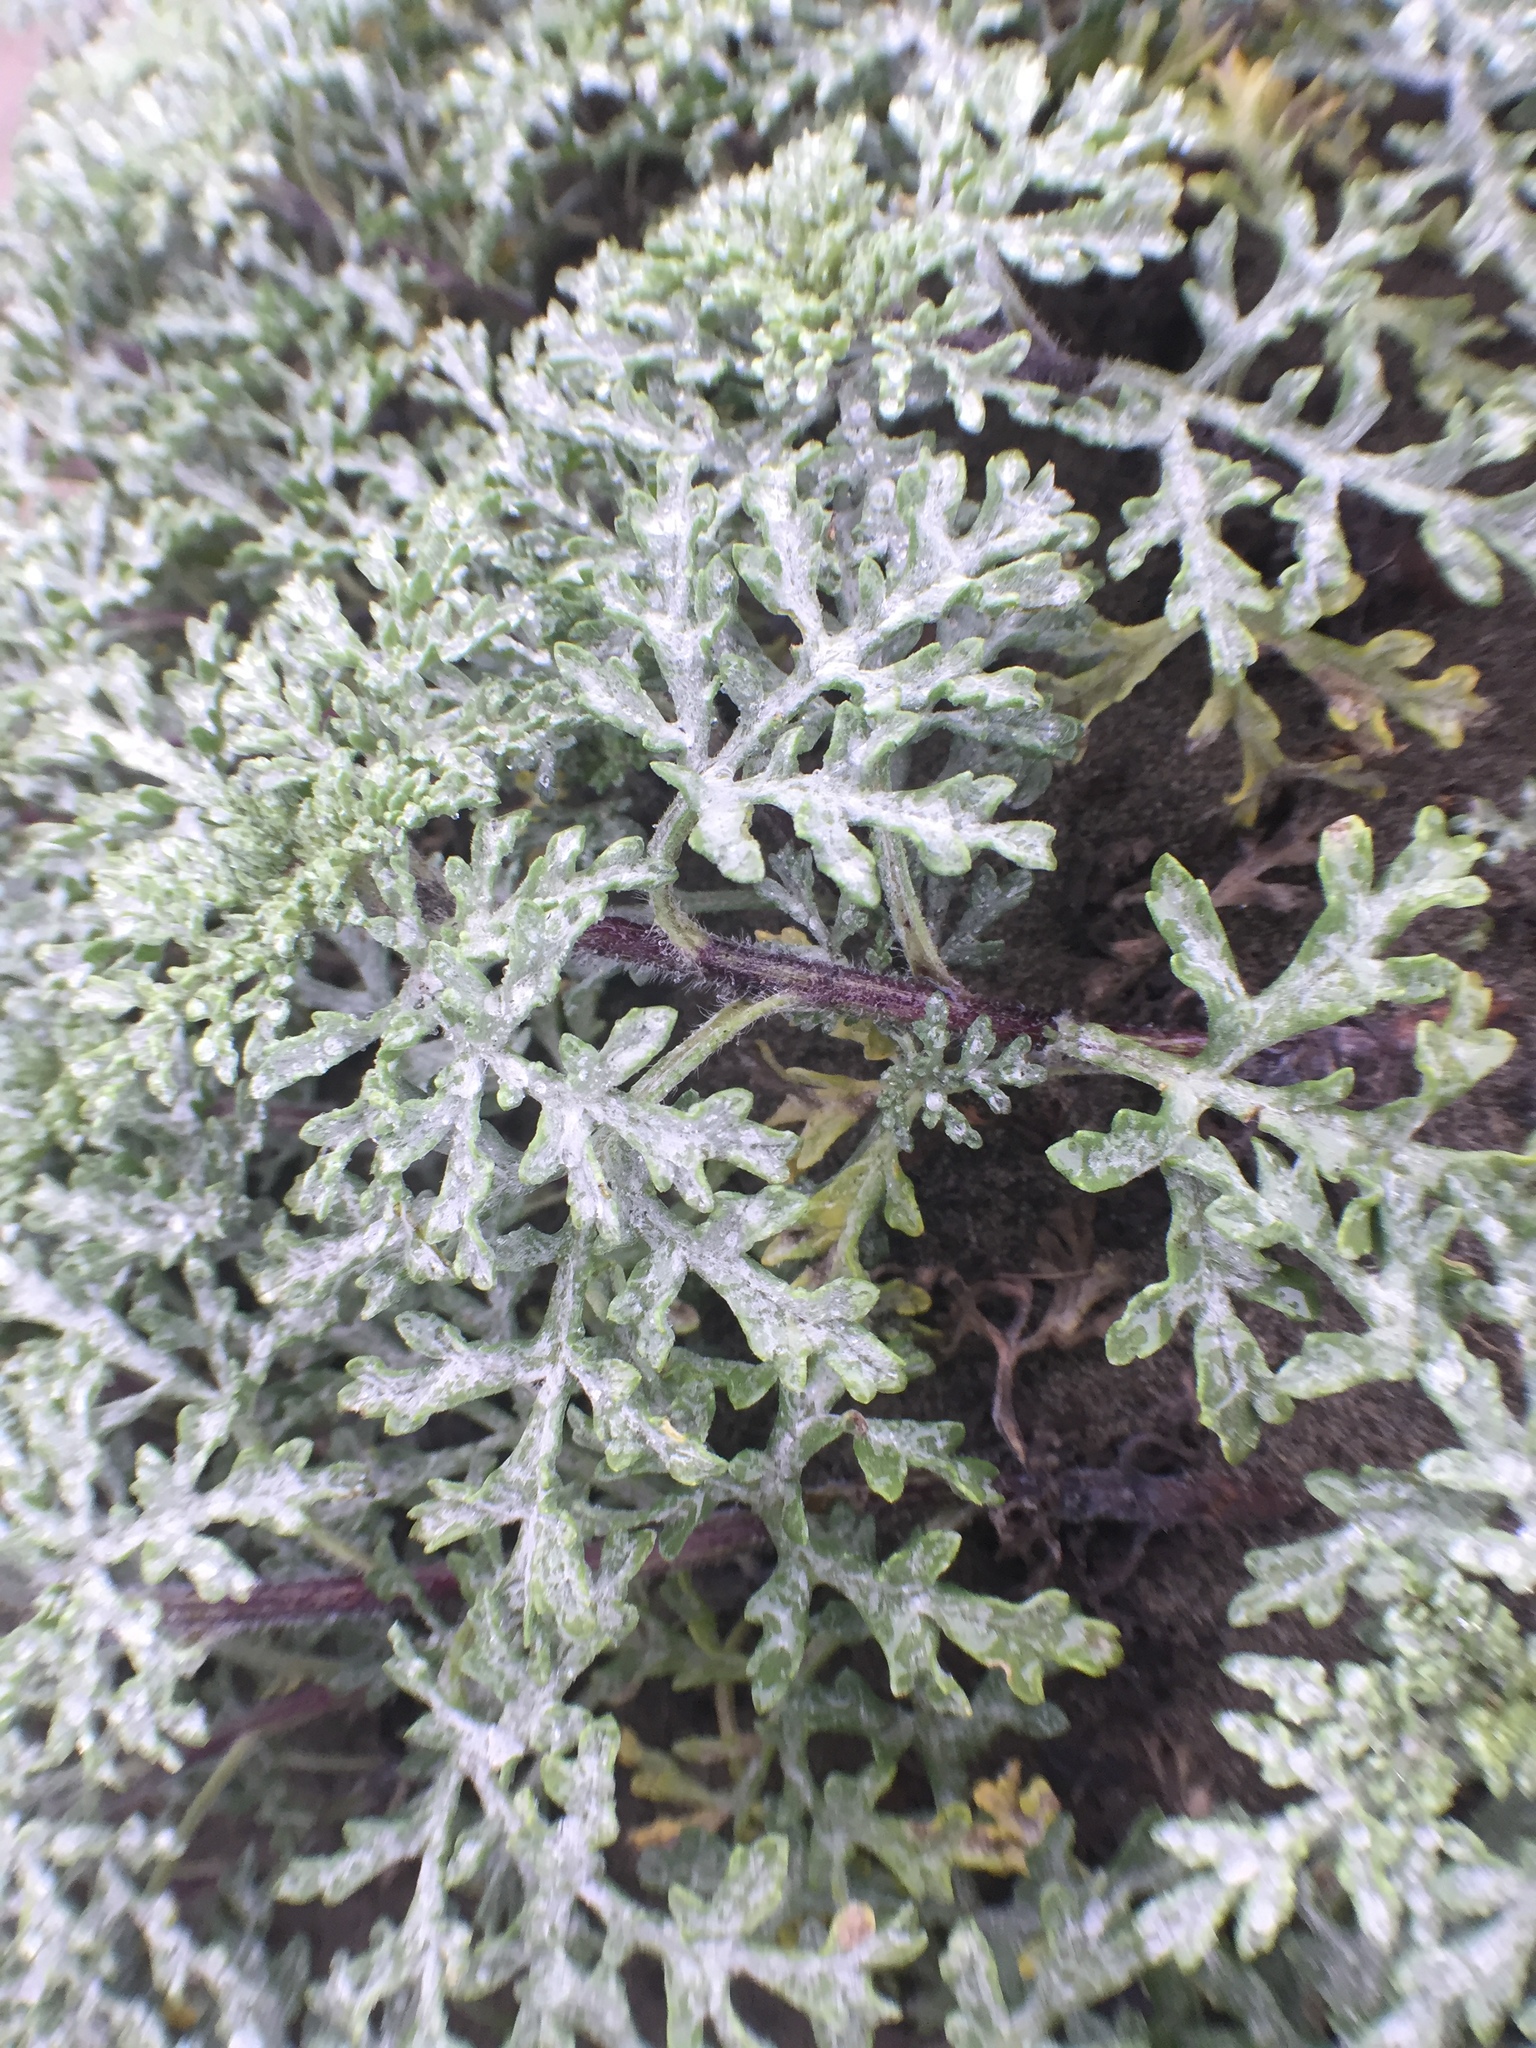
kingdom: Plantae
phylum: Tracheophyta
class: Magnoliopsida
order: Asterales
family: Asteraceae
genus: Ambrosia
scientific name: Ambrosia chamissonis
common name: Beachbur
